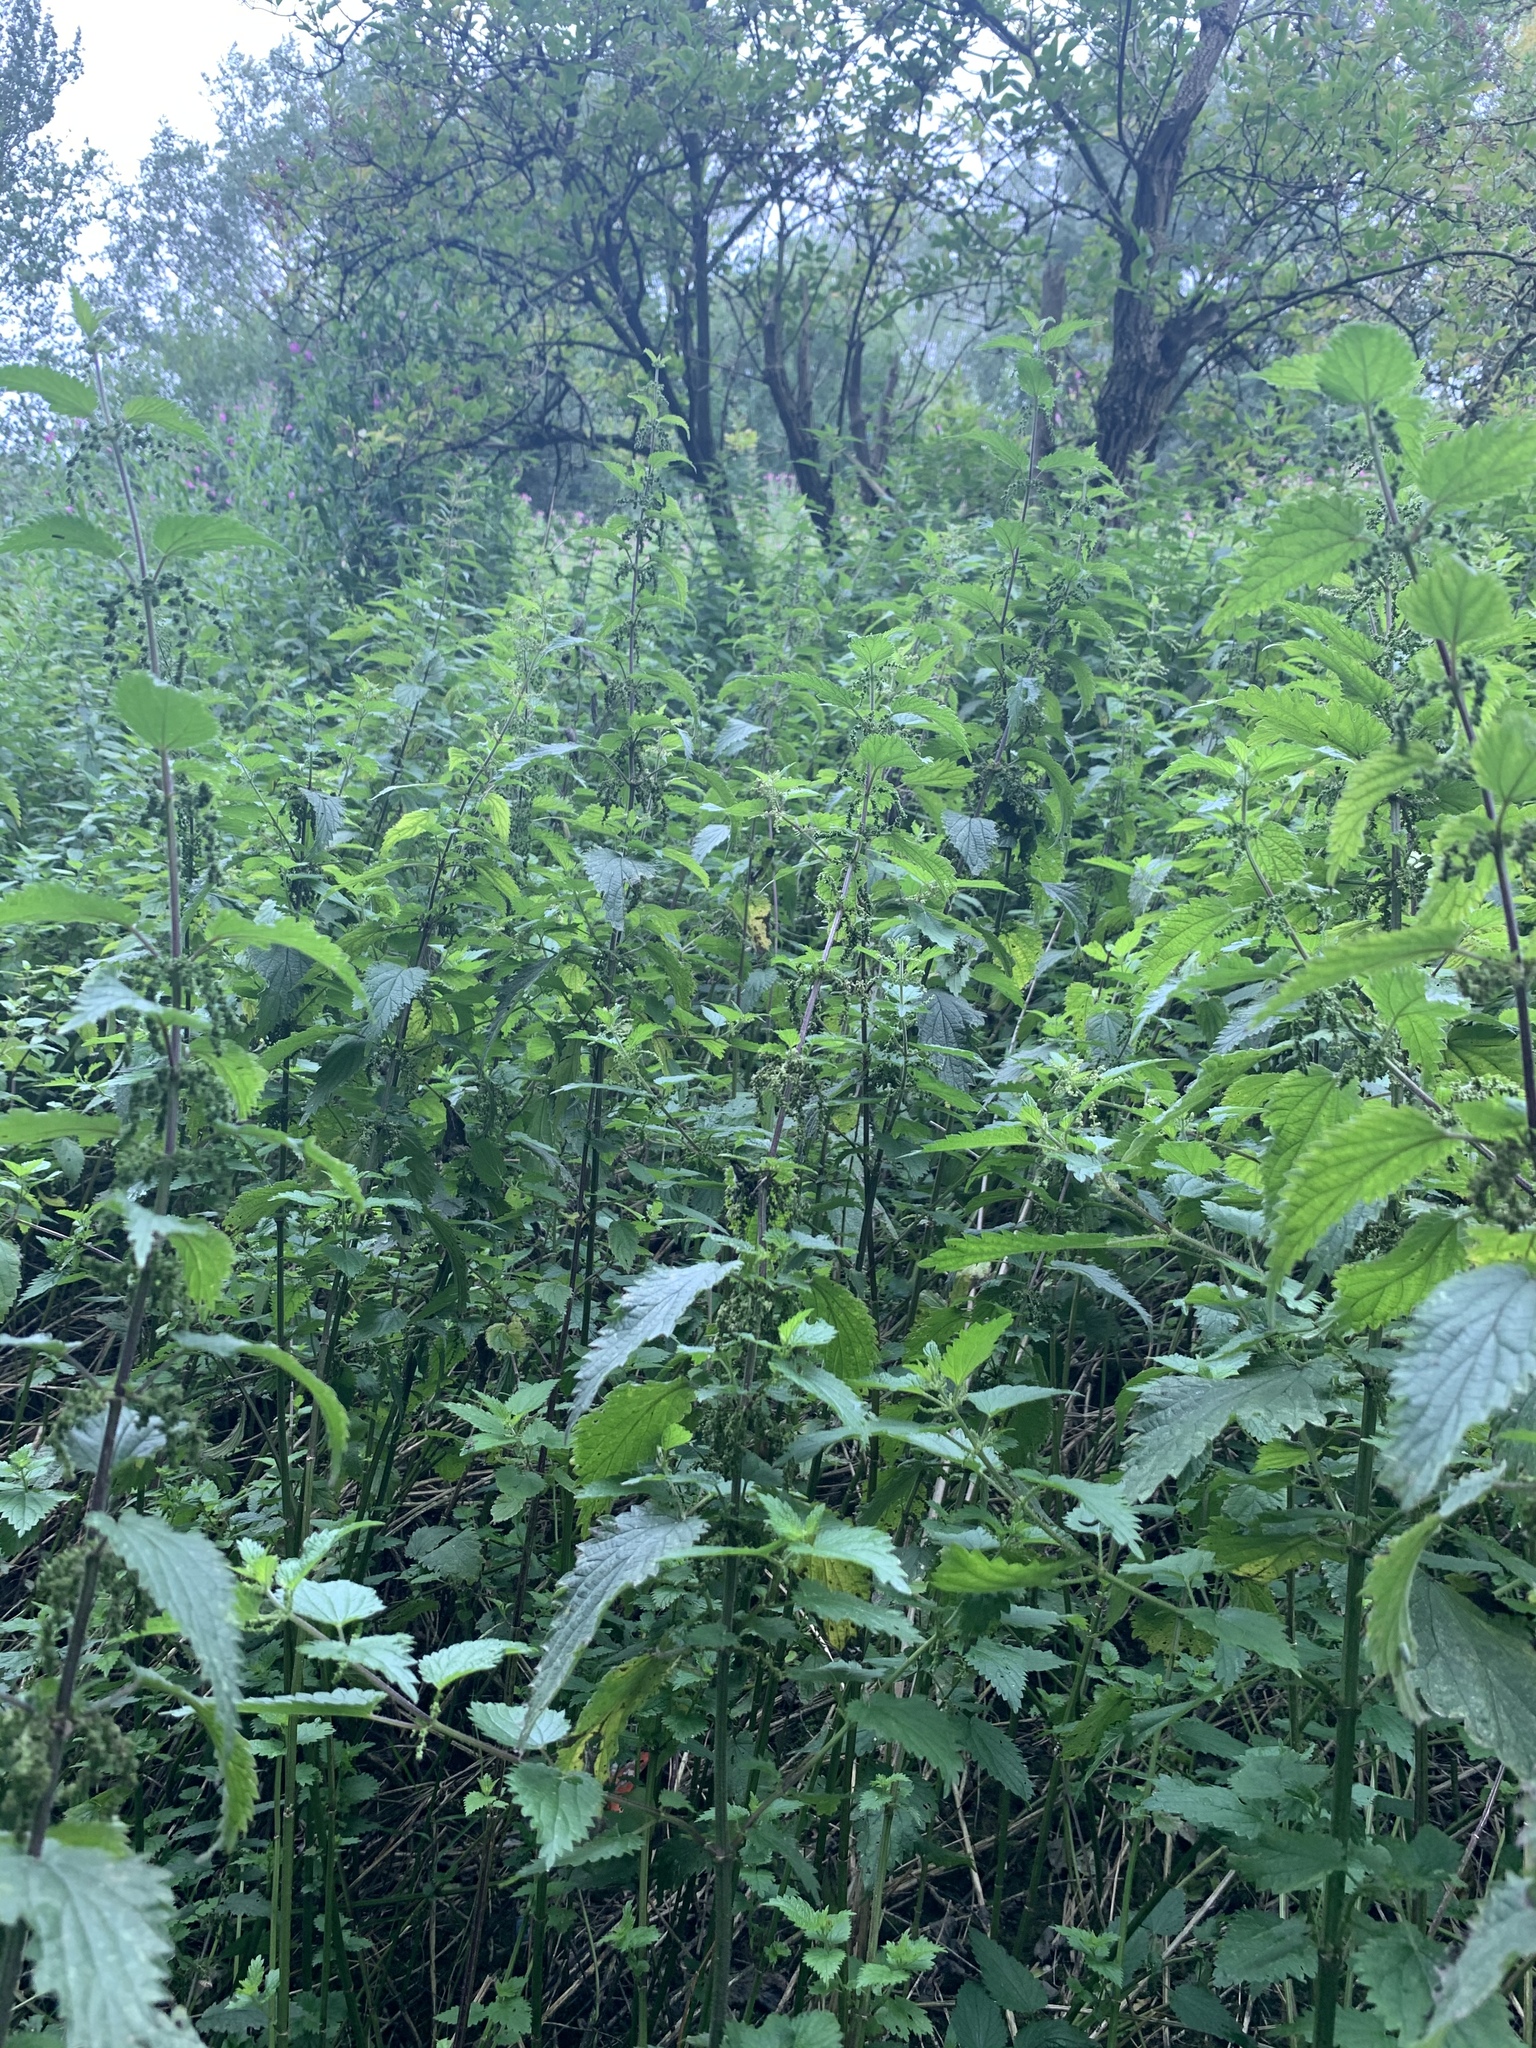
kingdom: Plantae
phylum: Tracheophyta
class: Magnoliopsida
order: Rosales
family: Urticaceae
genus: Urtica
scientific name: Urtica dioica
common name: Common nettle
